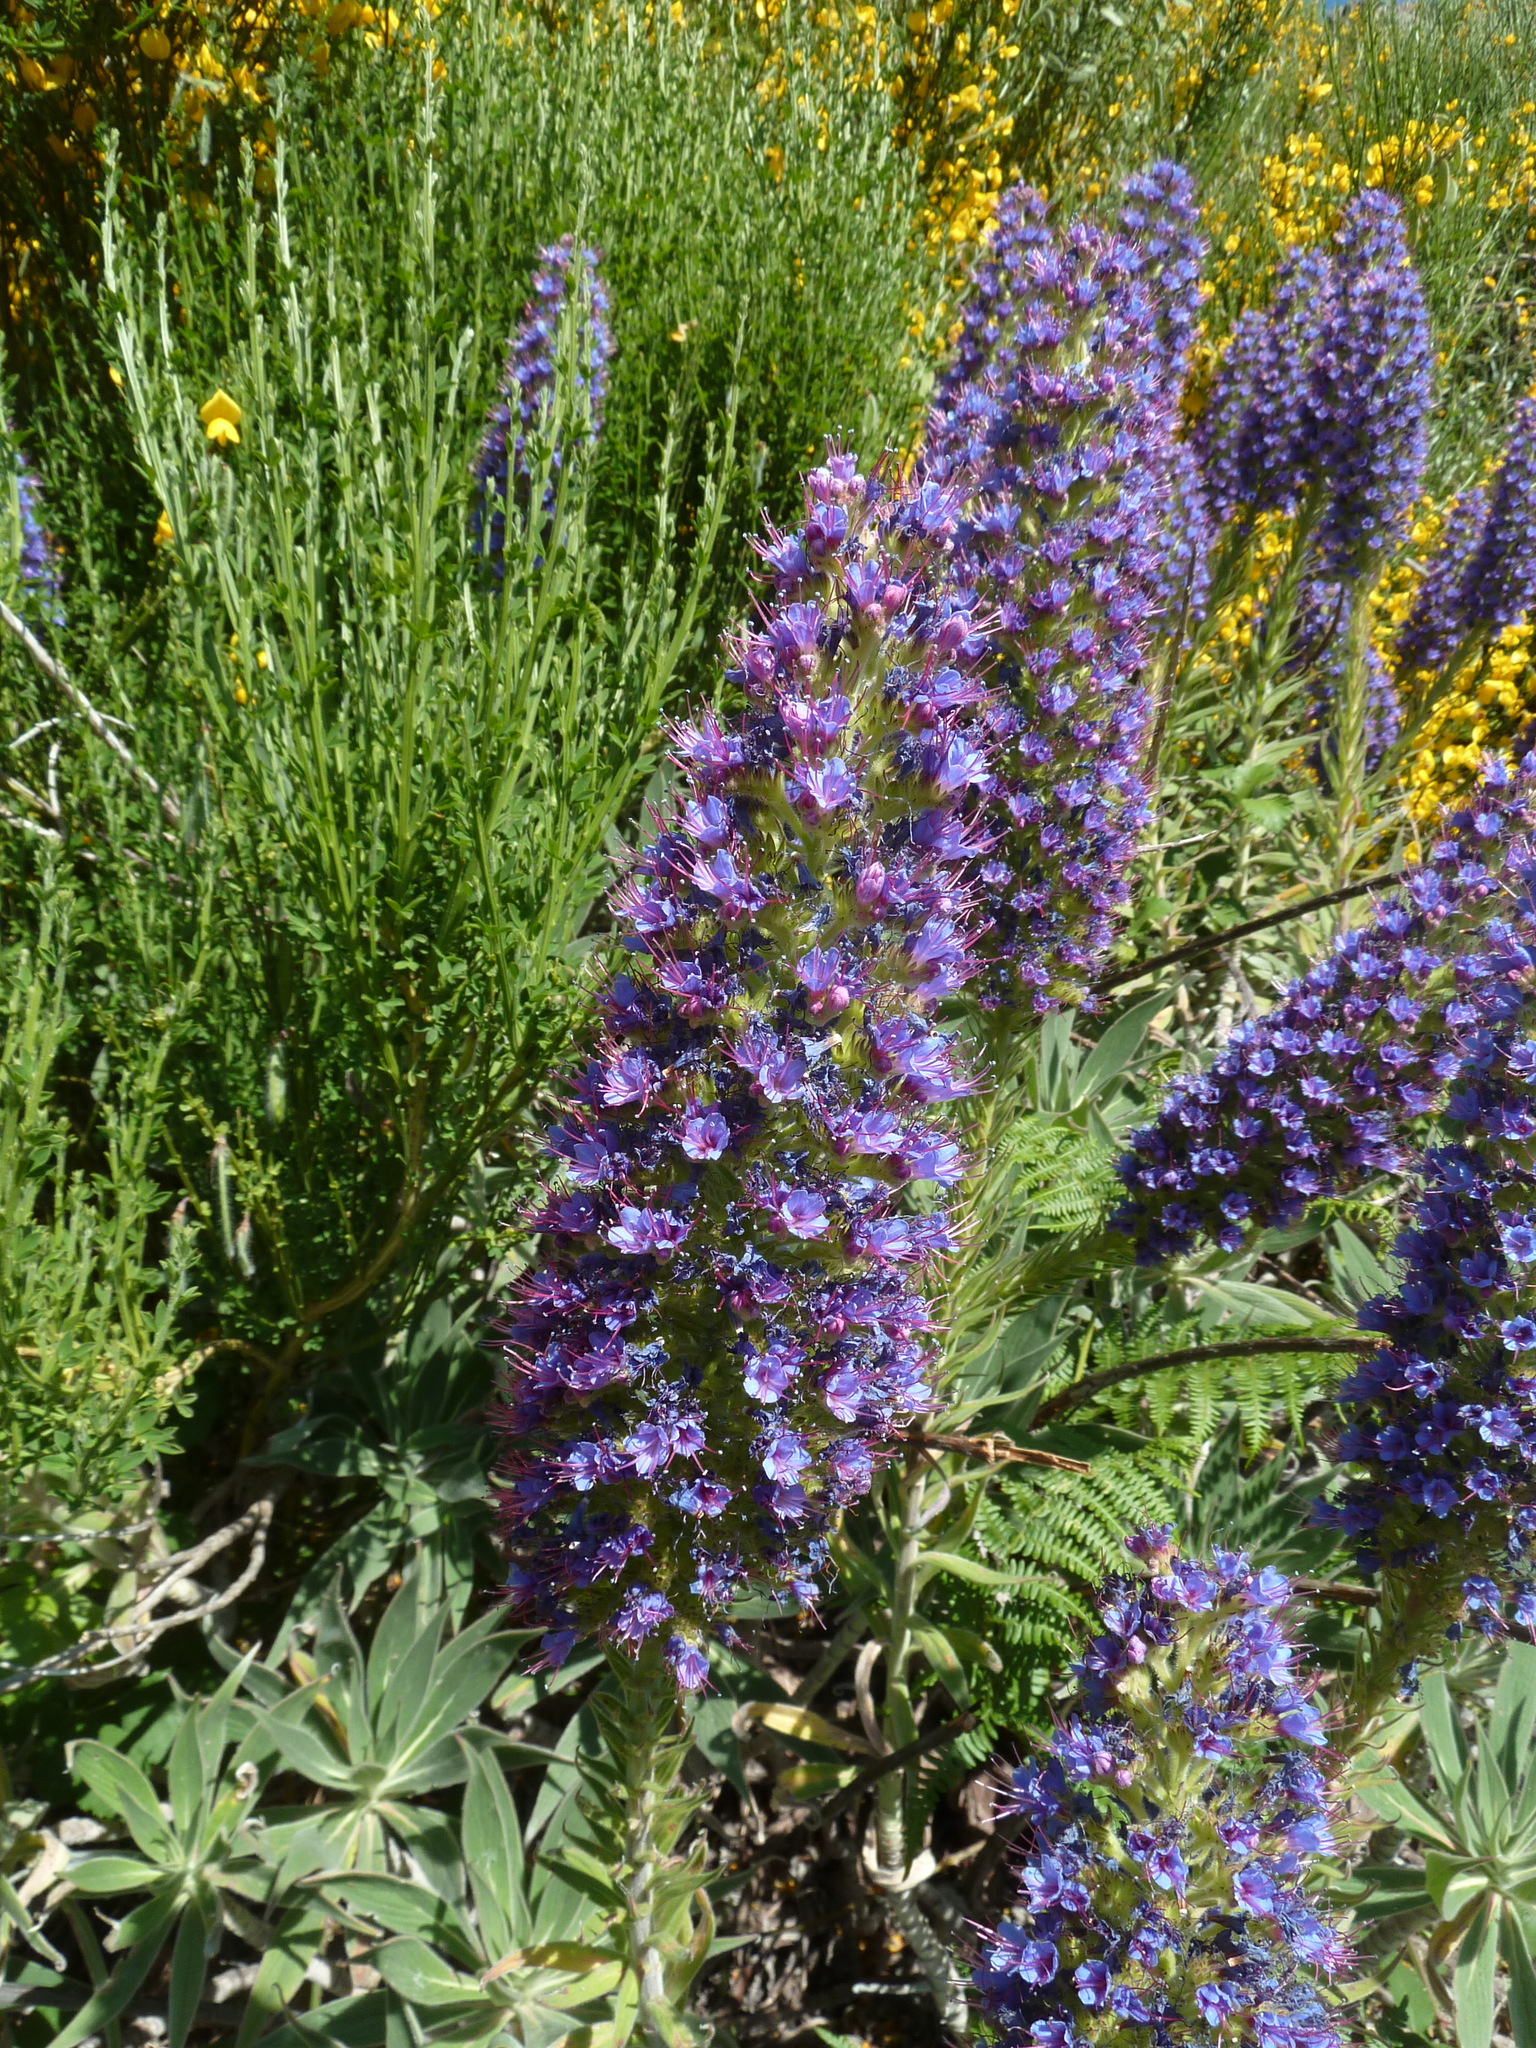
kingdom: Plantae
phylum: Tracheophyta
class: Magnoliopsida
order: Boraginales
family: Boraginaceae
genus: Echium
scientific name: Echium candicans
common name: Pride of madeira
